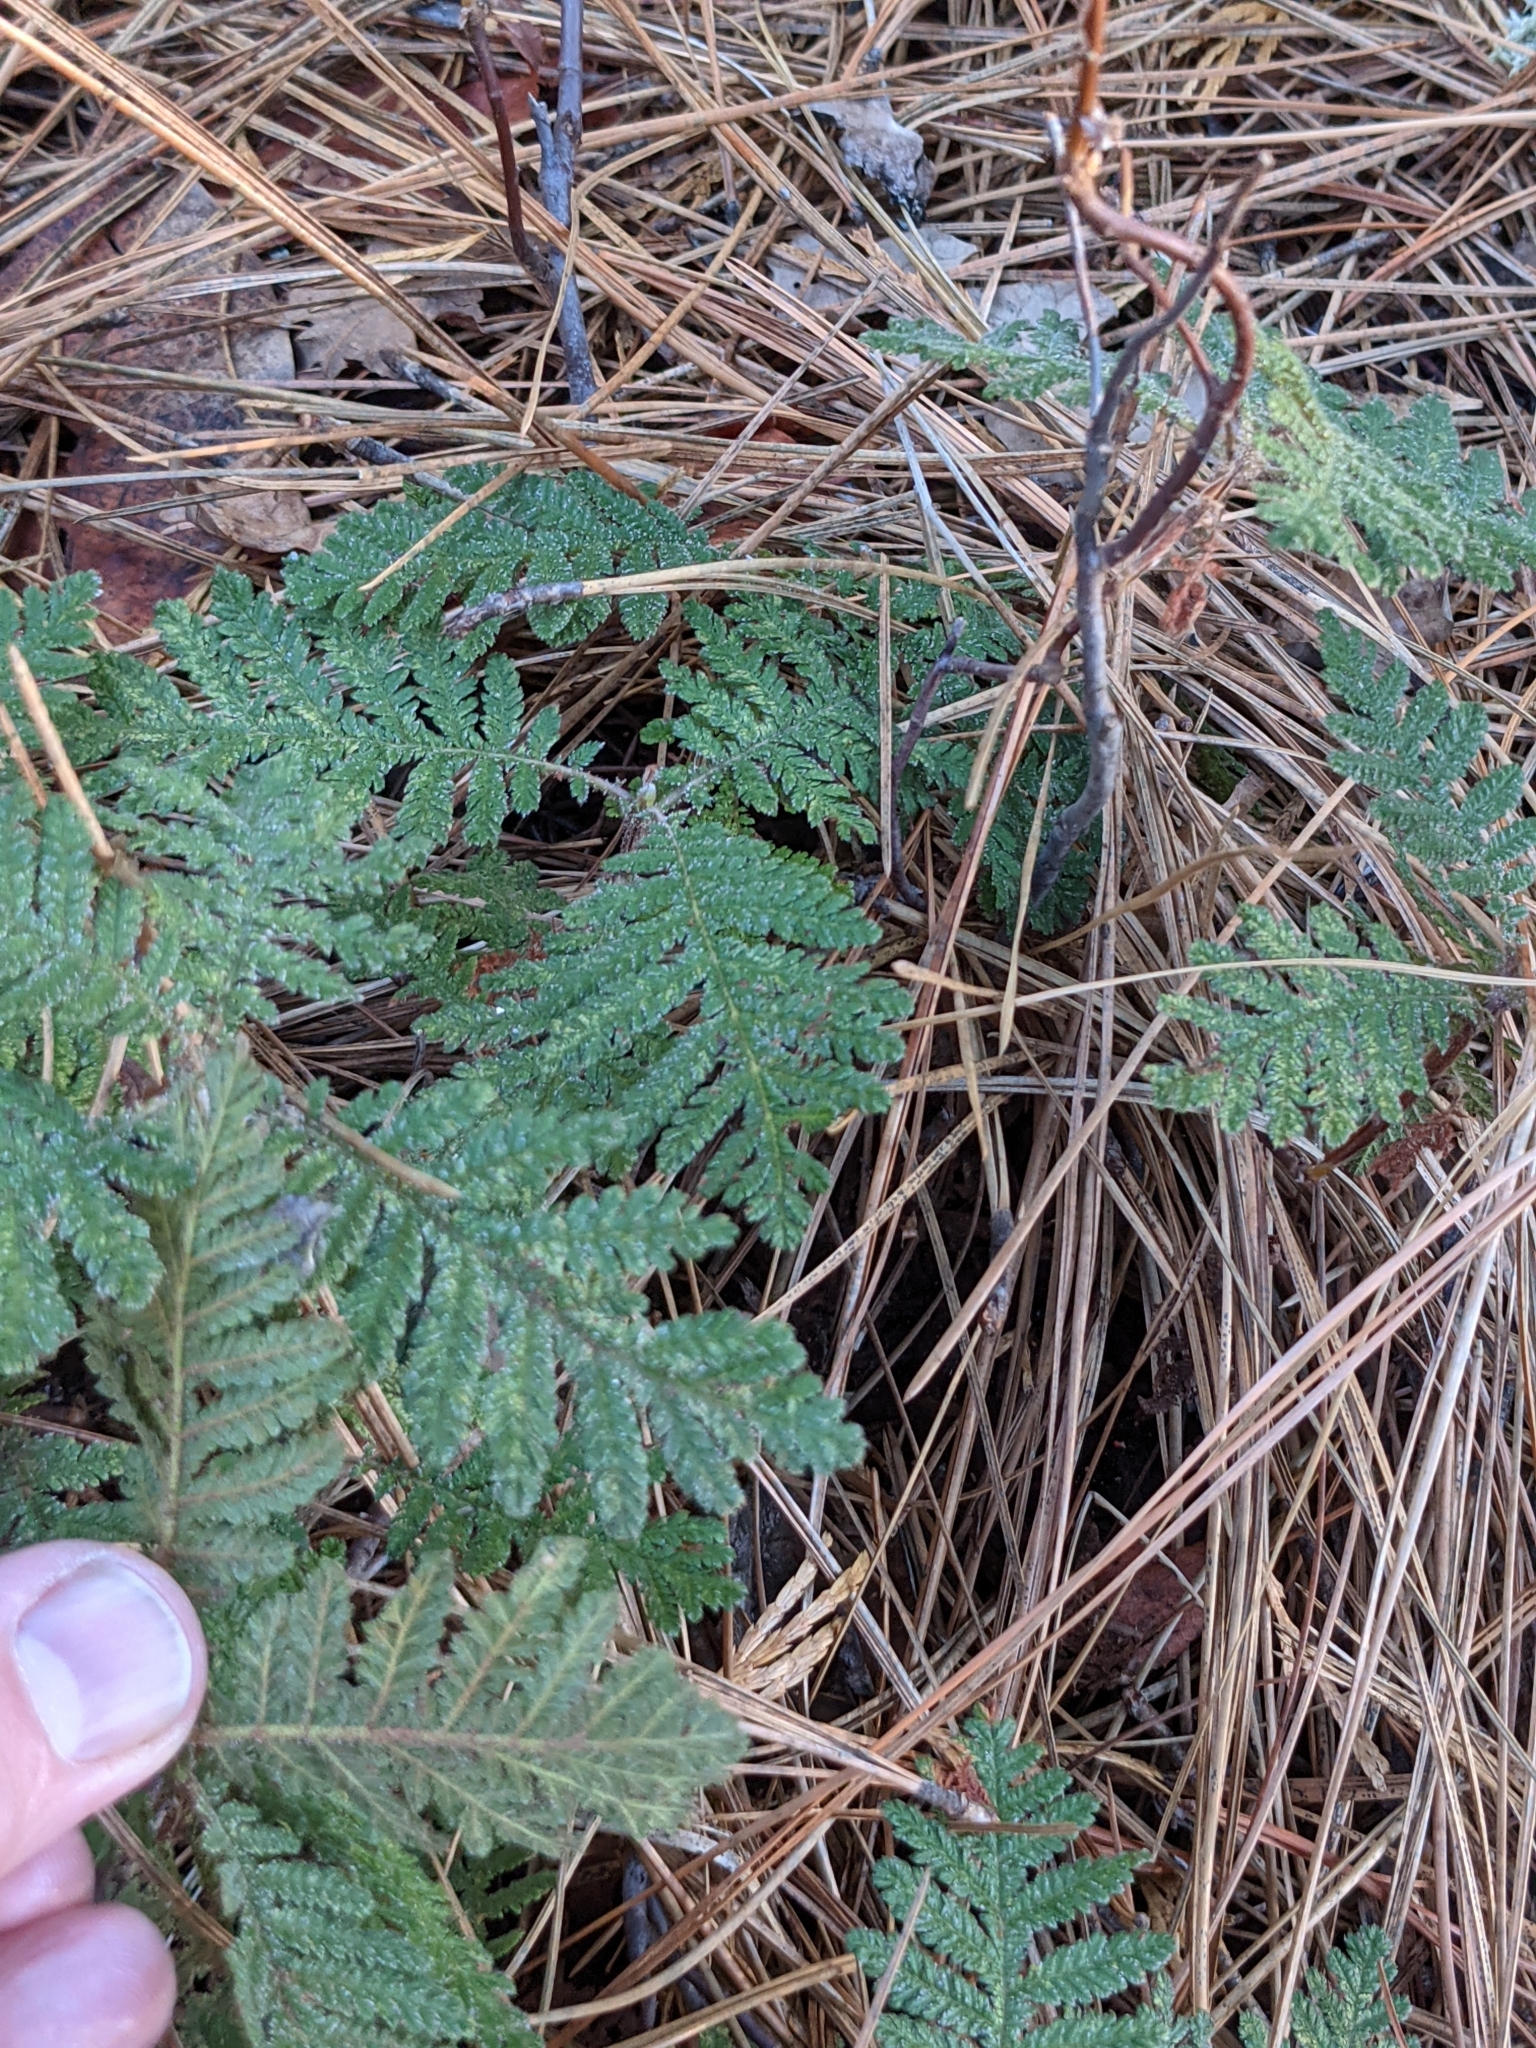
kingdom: Plantae
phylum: Tracheophyta
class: Magnoliopsida
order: Rosales
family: Rosaceae
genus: Chamaebatia
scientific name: Chamaebatia foliolosa
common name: Mountain misery
